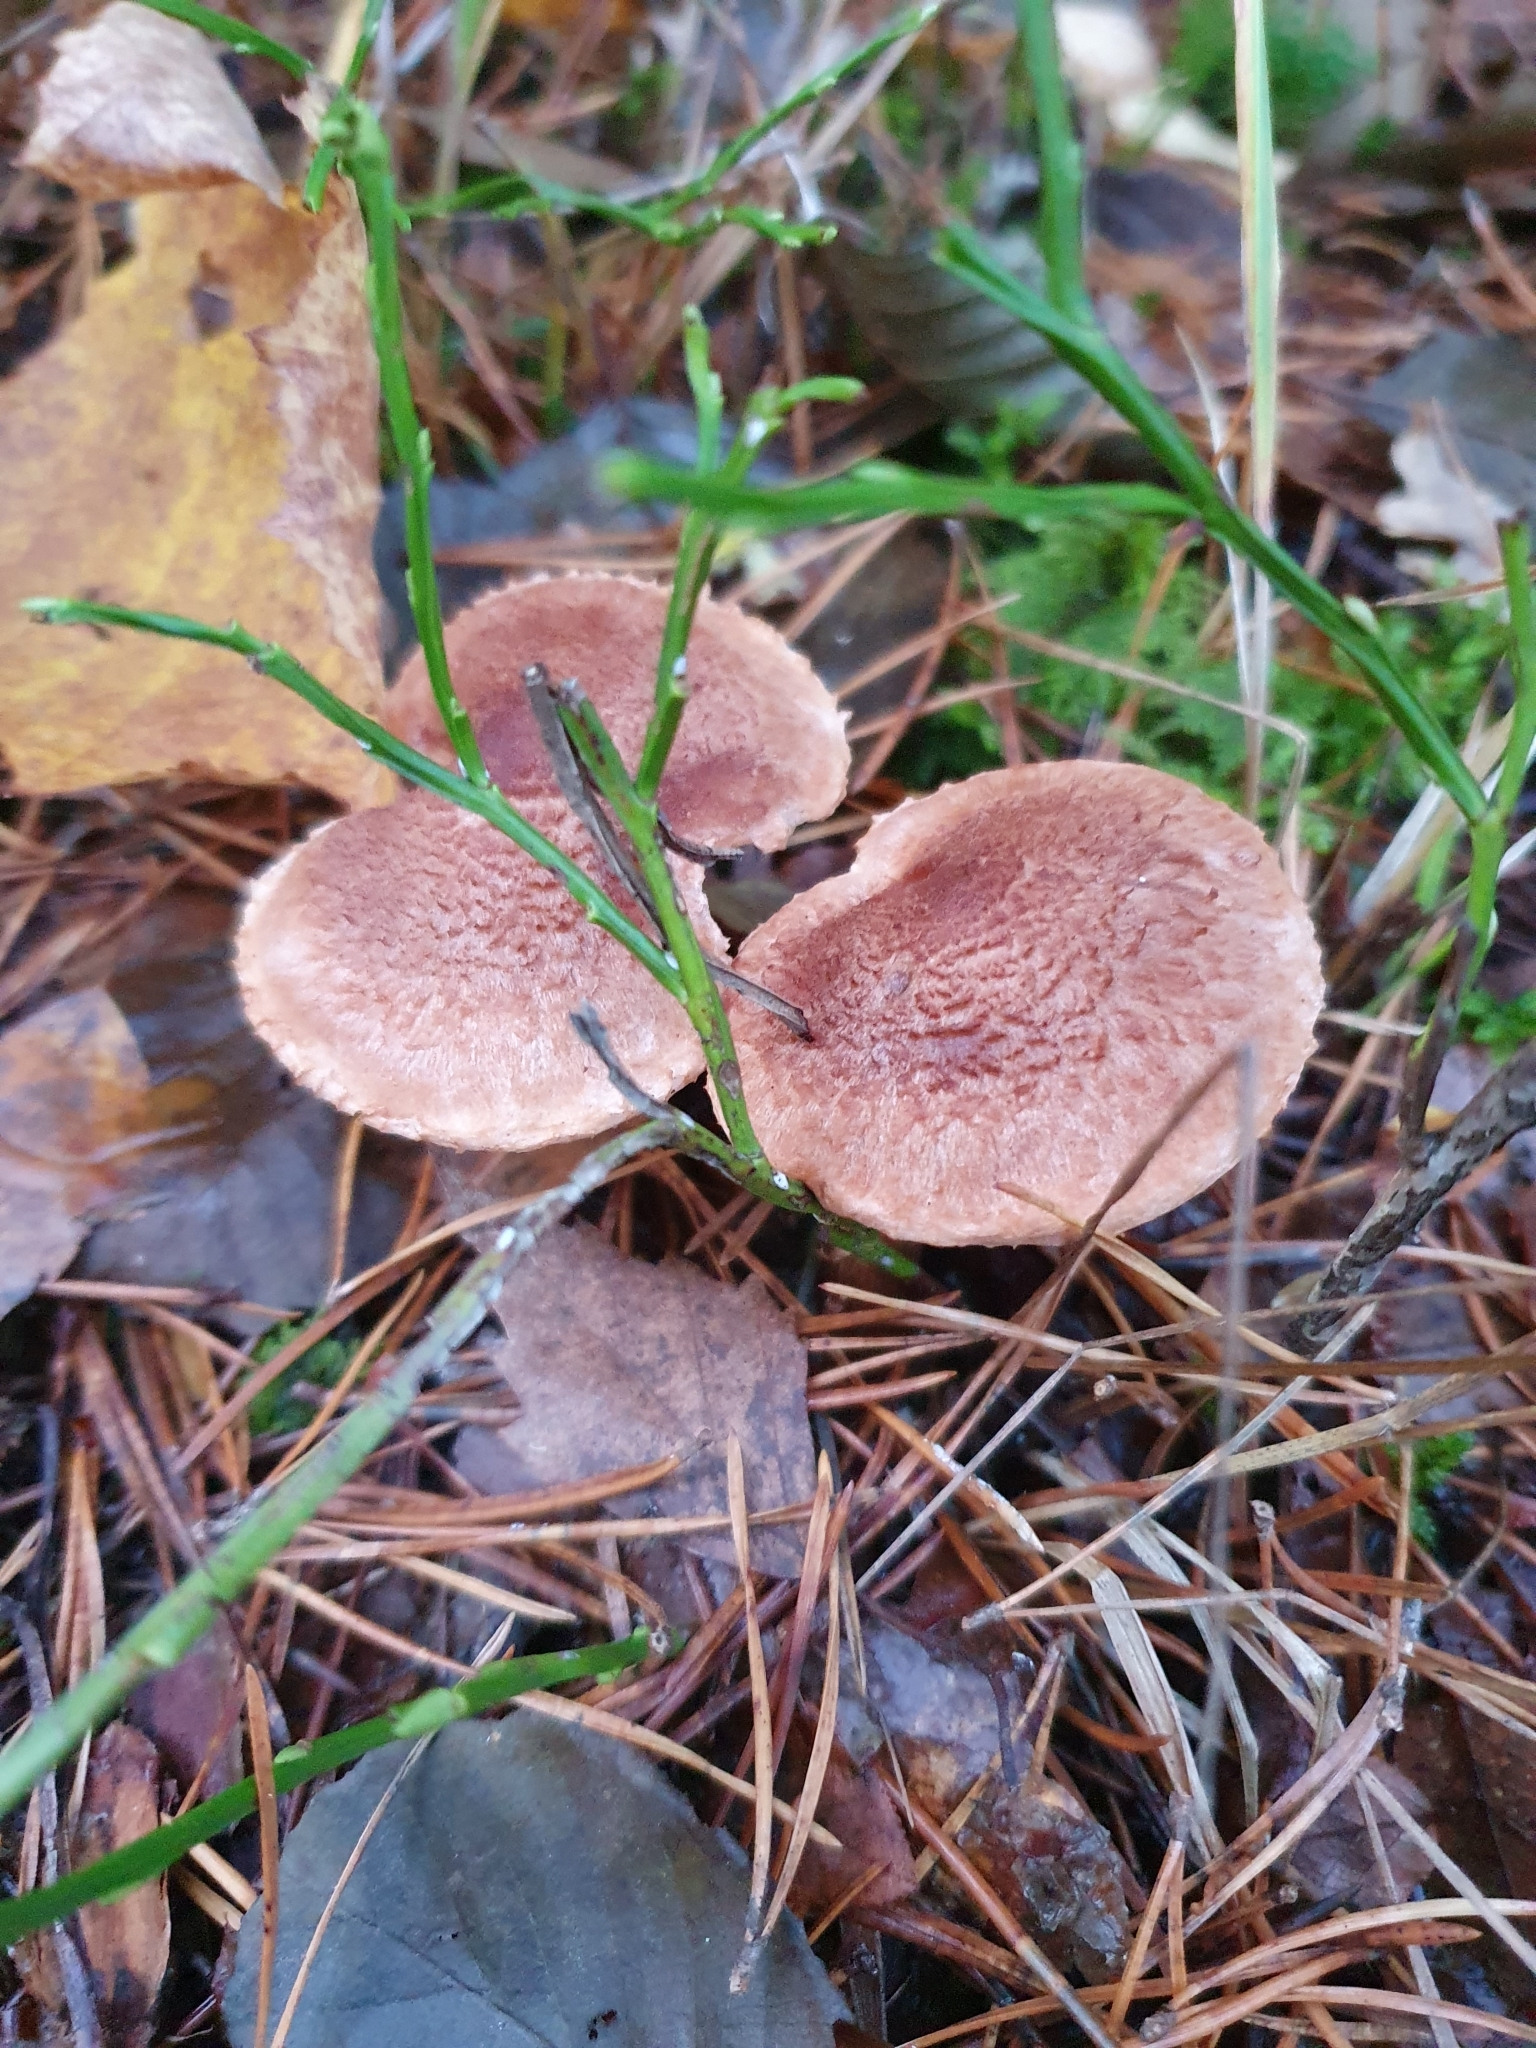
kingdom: Fungi
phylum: Basidiomycota
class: Agaricomycetes
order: Agaricales
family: Tricholomataceae
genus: Tricholoma
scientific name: Tricholoma vaccinum
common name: Scaly knight
